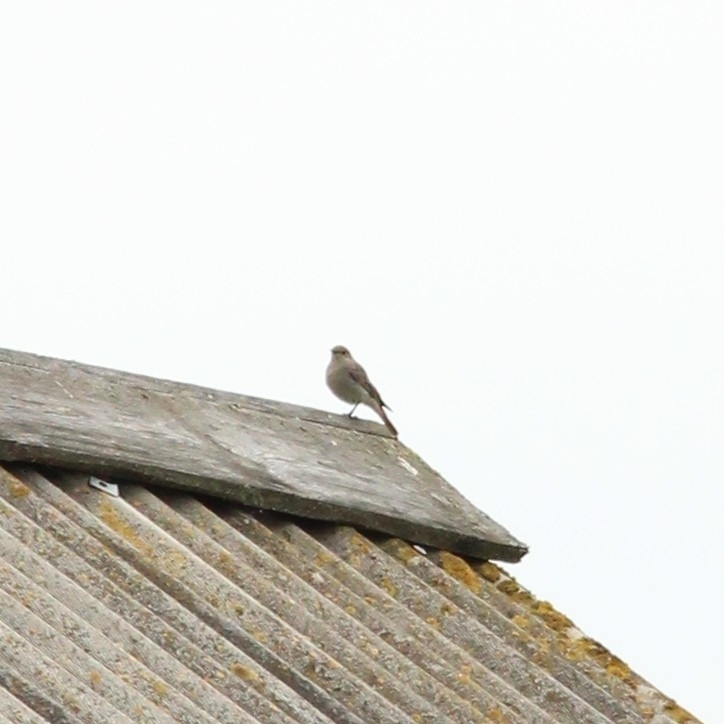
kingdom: Animalia
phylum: Chordata
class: Aves
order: Passeriformes
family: Muscicapidae
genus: Phoenicurus
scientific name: Phoenicurus ochruros
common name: Black redstart
